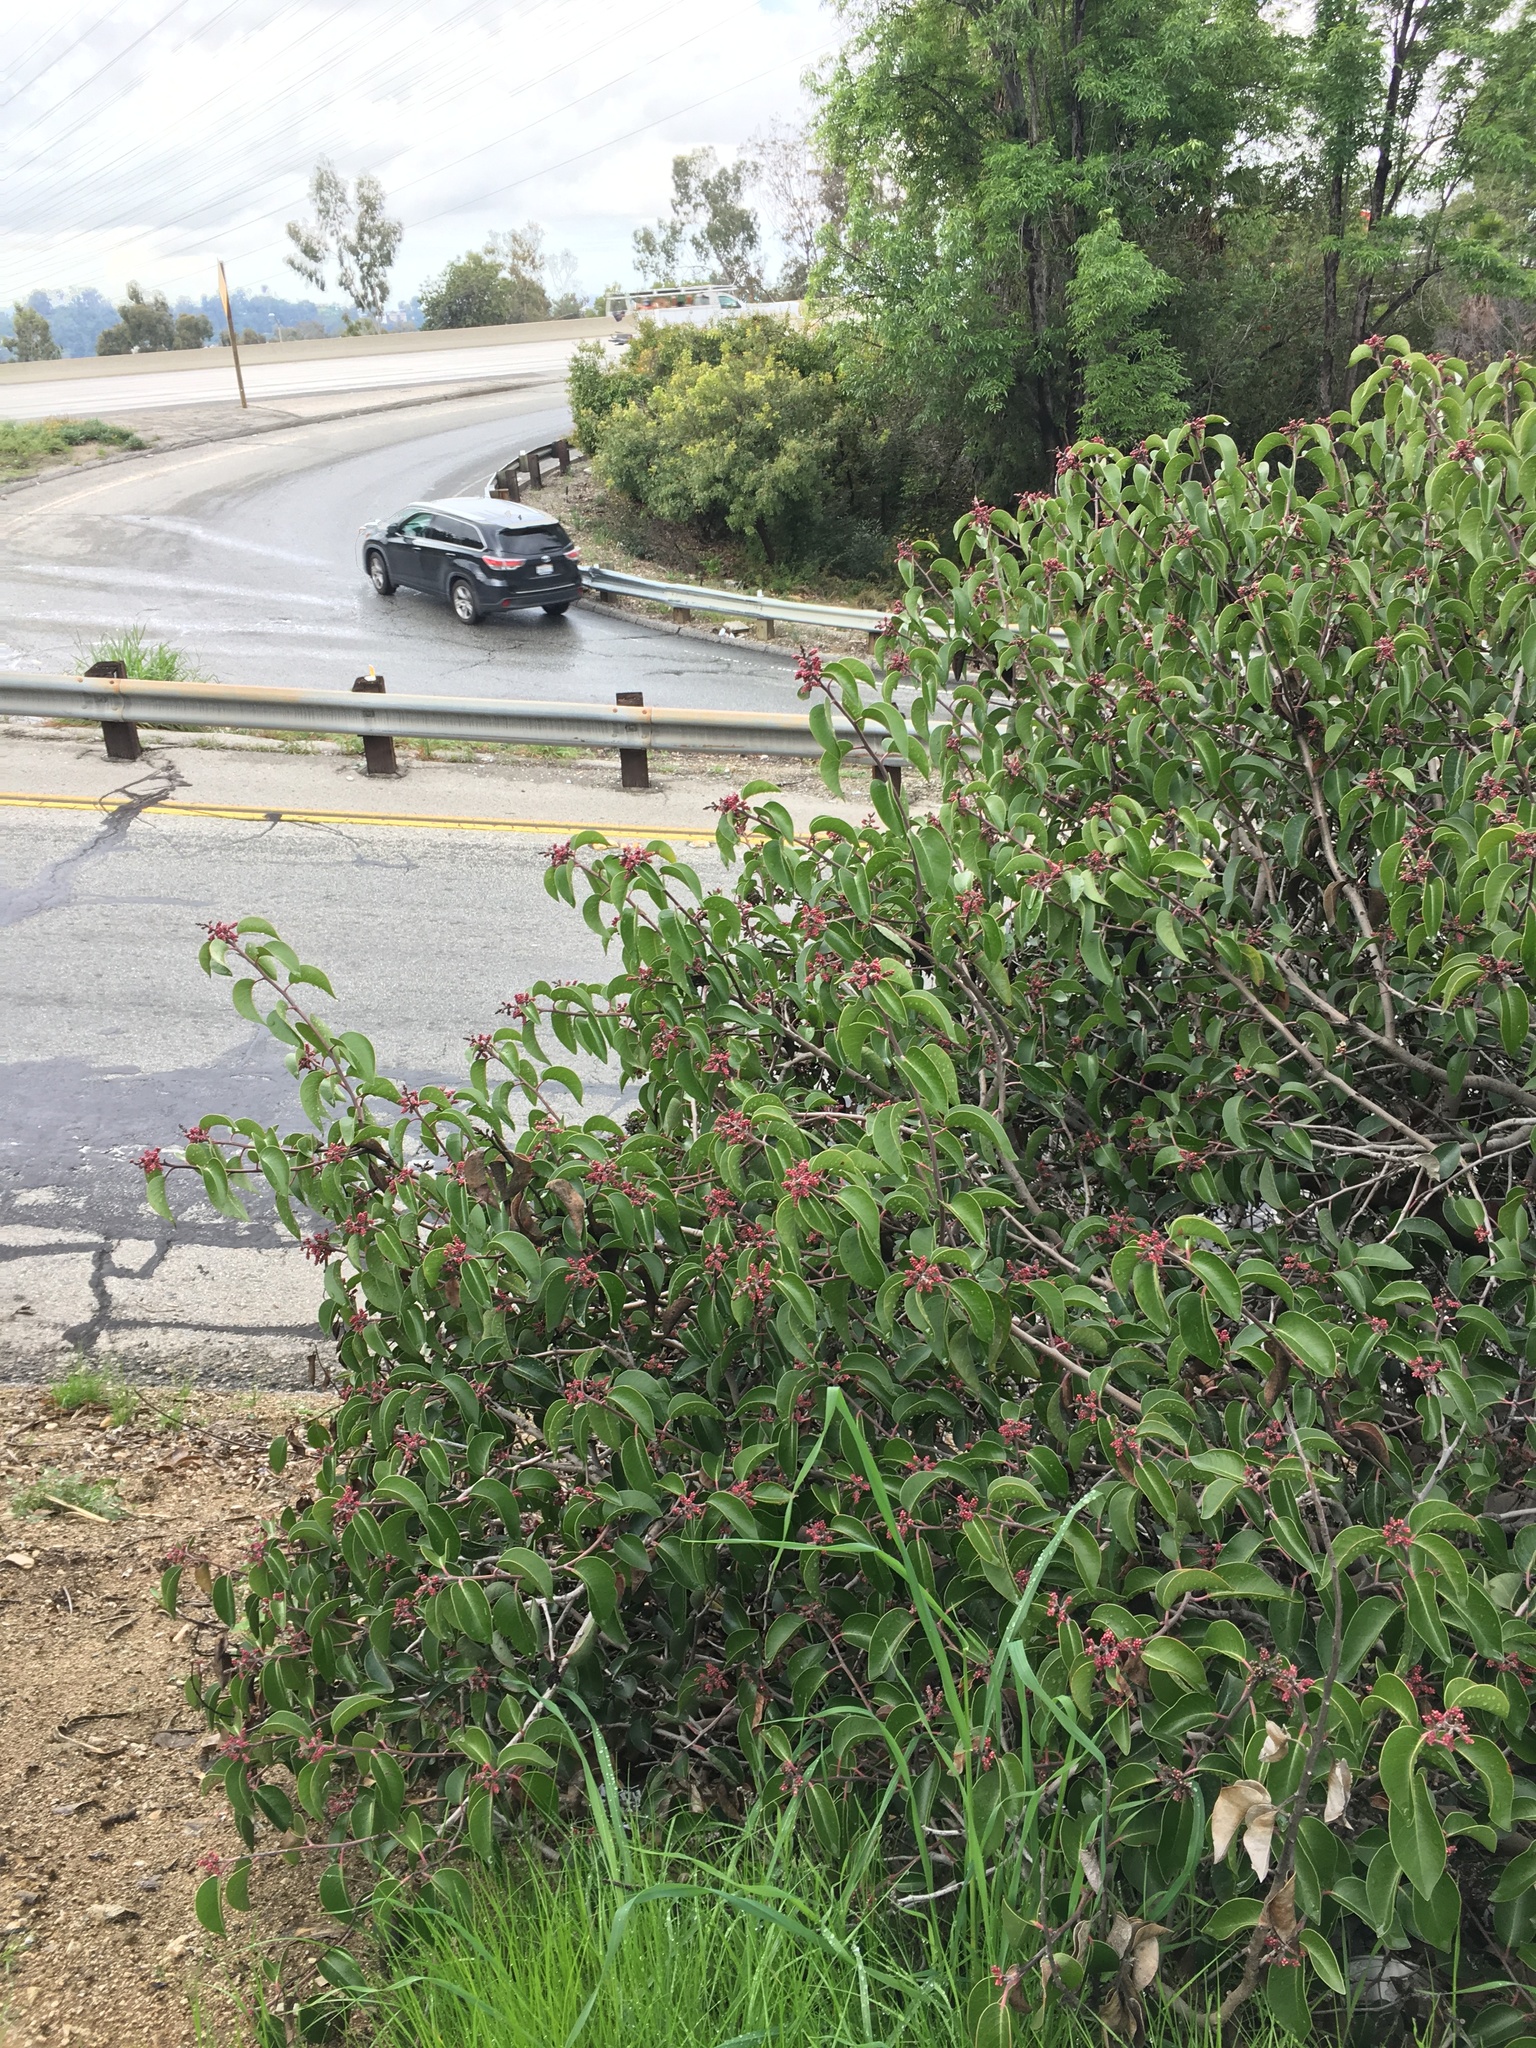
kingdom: Plantae
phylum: Tracheophyta
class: Magnoliopsida
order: Sapindales
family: Anacardiaceae
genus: Malosma
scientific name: Malosma laurina
